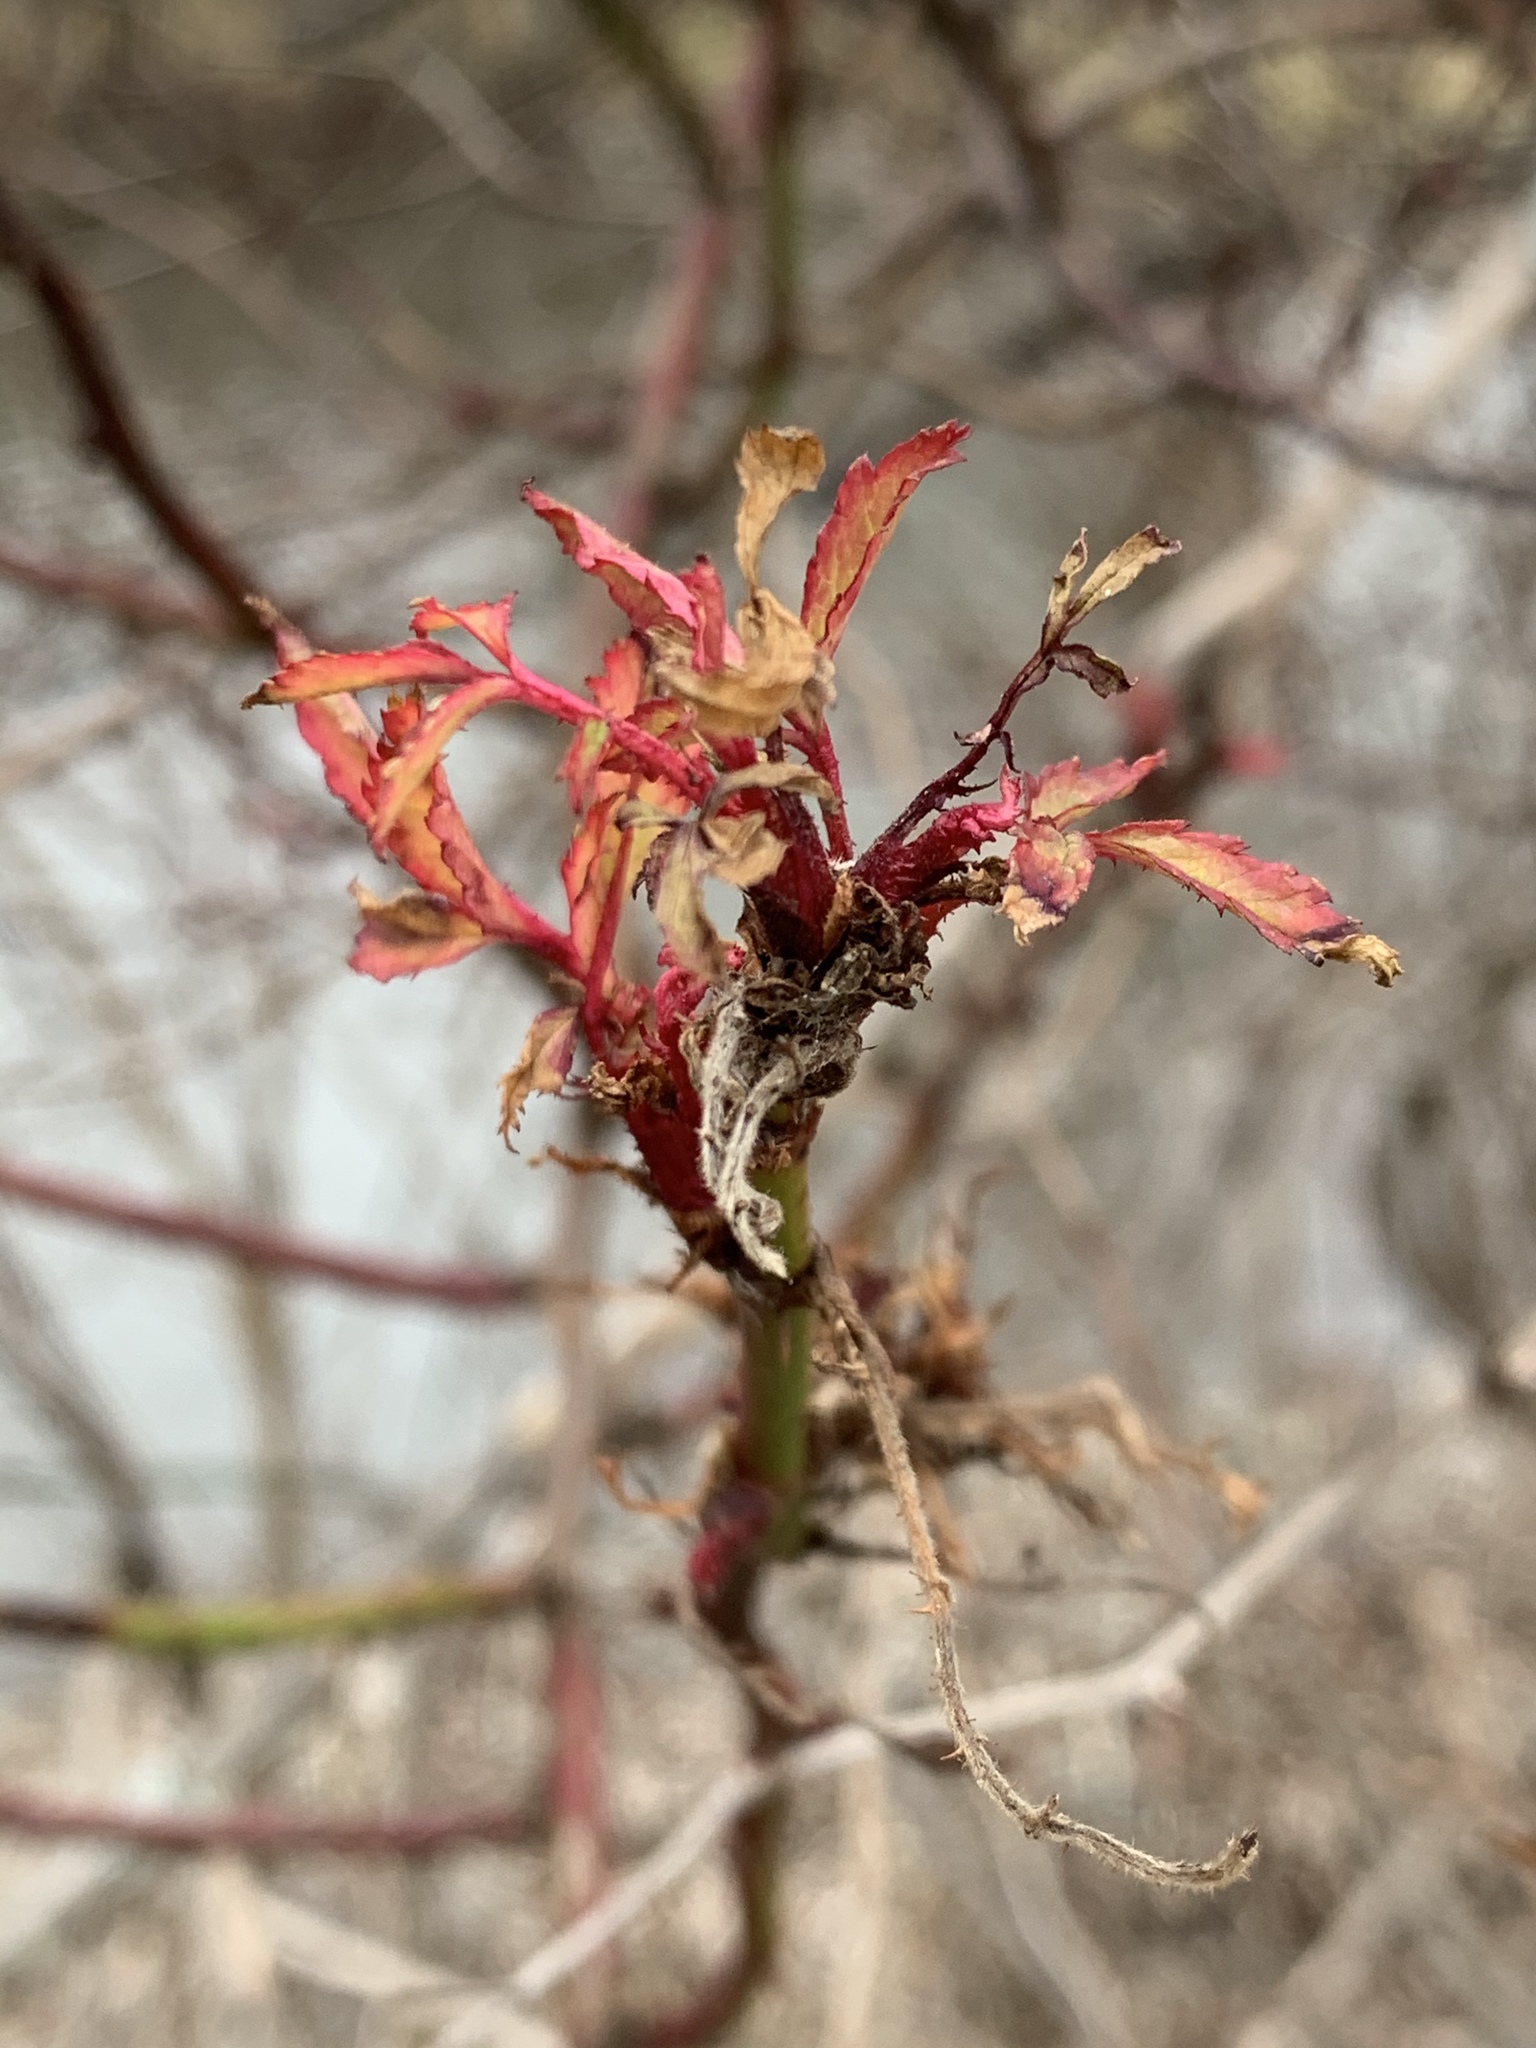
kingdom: Viruses
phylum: Negarnaviricota
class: Ellioviricetes
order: Bunyavirales
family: Fimoviridae
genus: Emaravirus
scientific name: Emaravirus rosae
